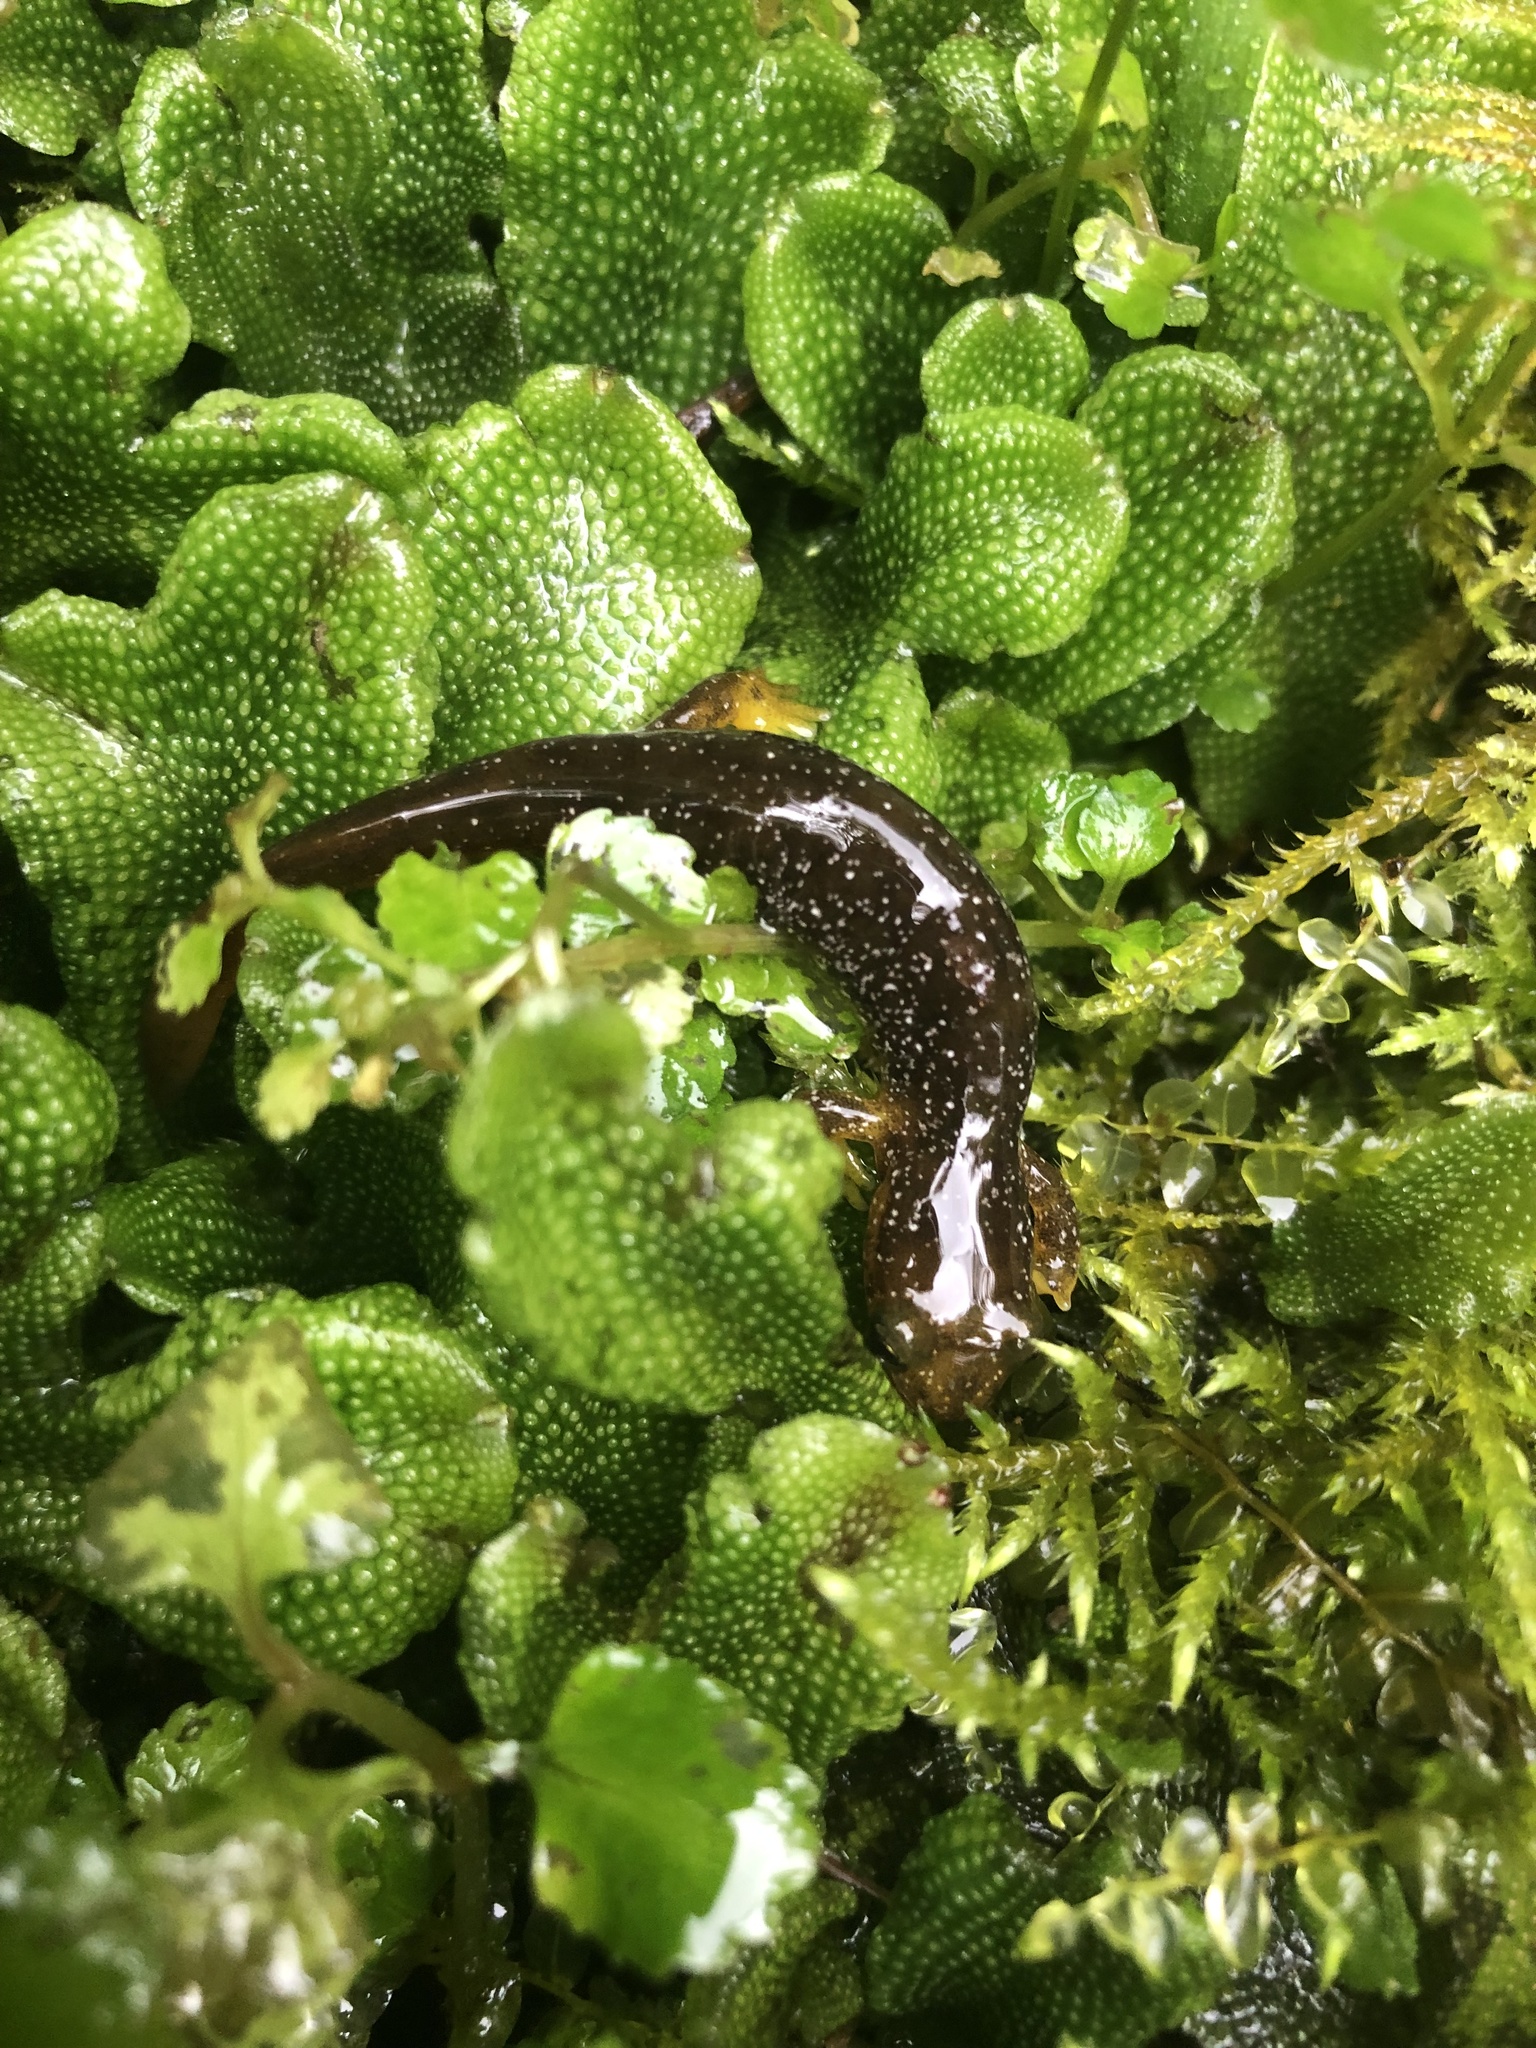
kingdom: Animalia
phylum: Chordata
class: Amphibia
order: Caudata
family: Rhyacotritonidae
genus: Rhyacotriton
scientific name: Rhyacotriton kezeri
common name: Columbia torrent salamander
